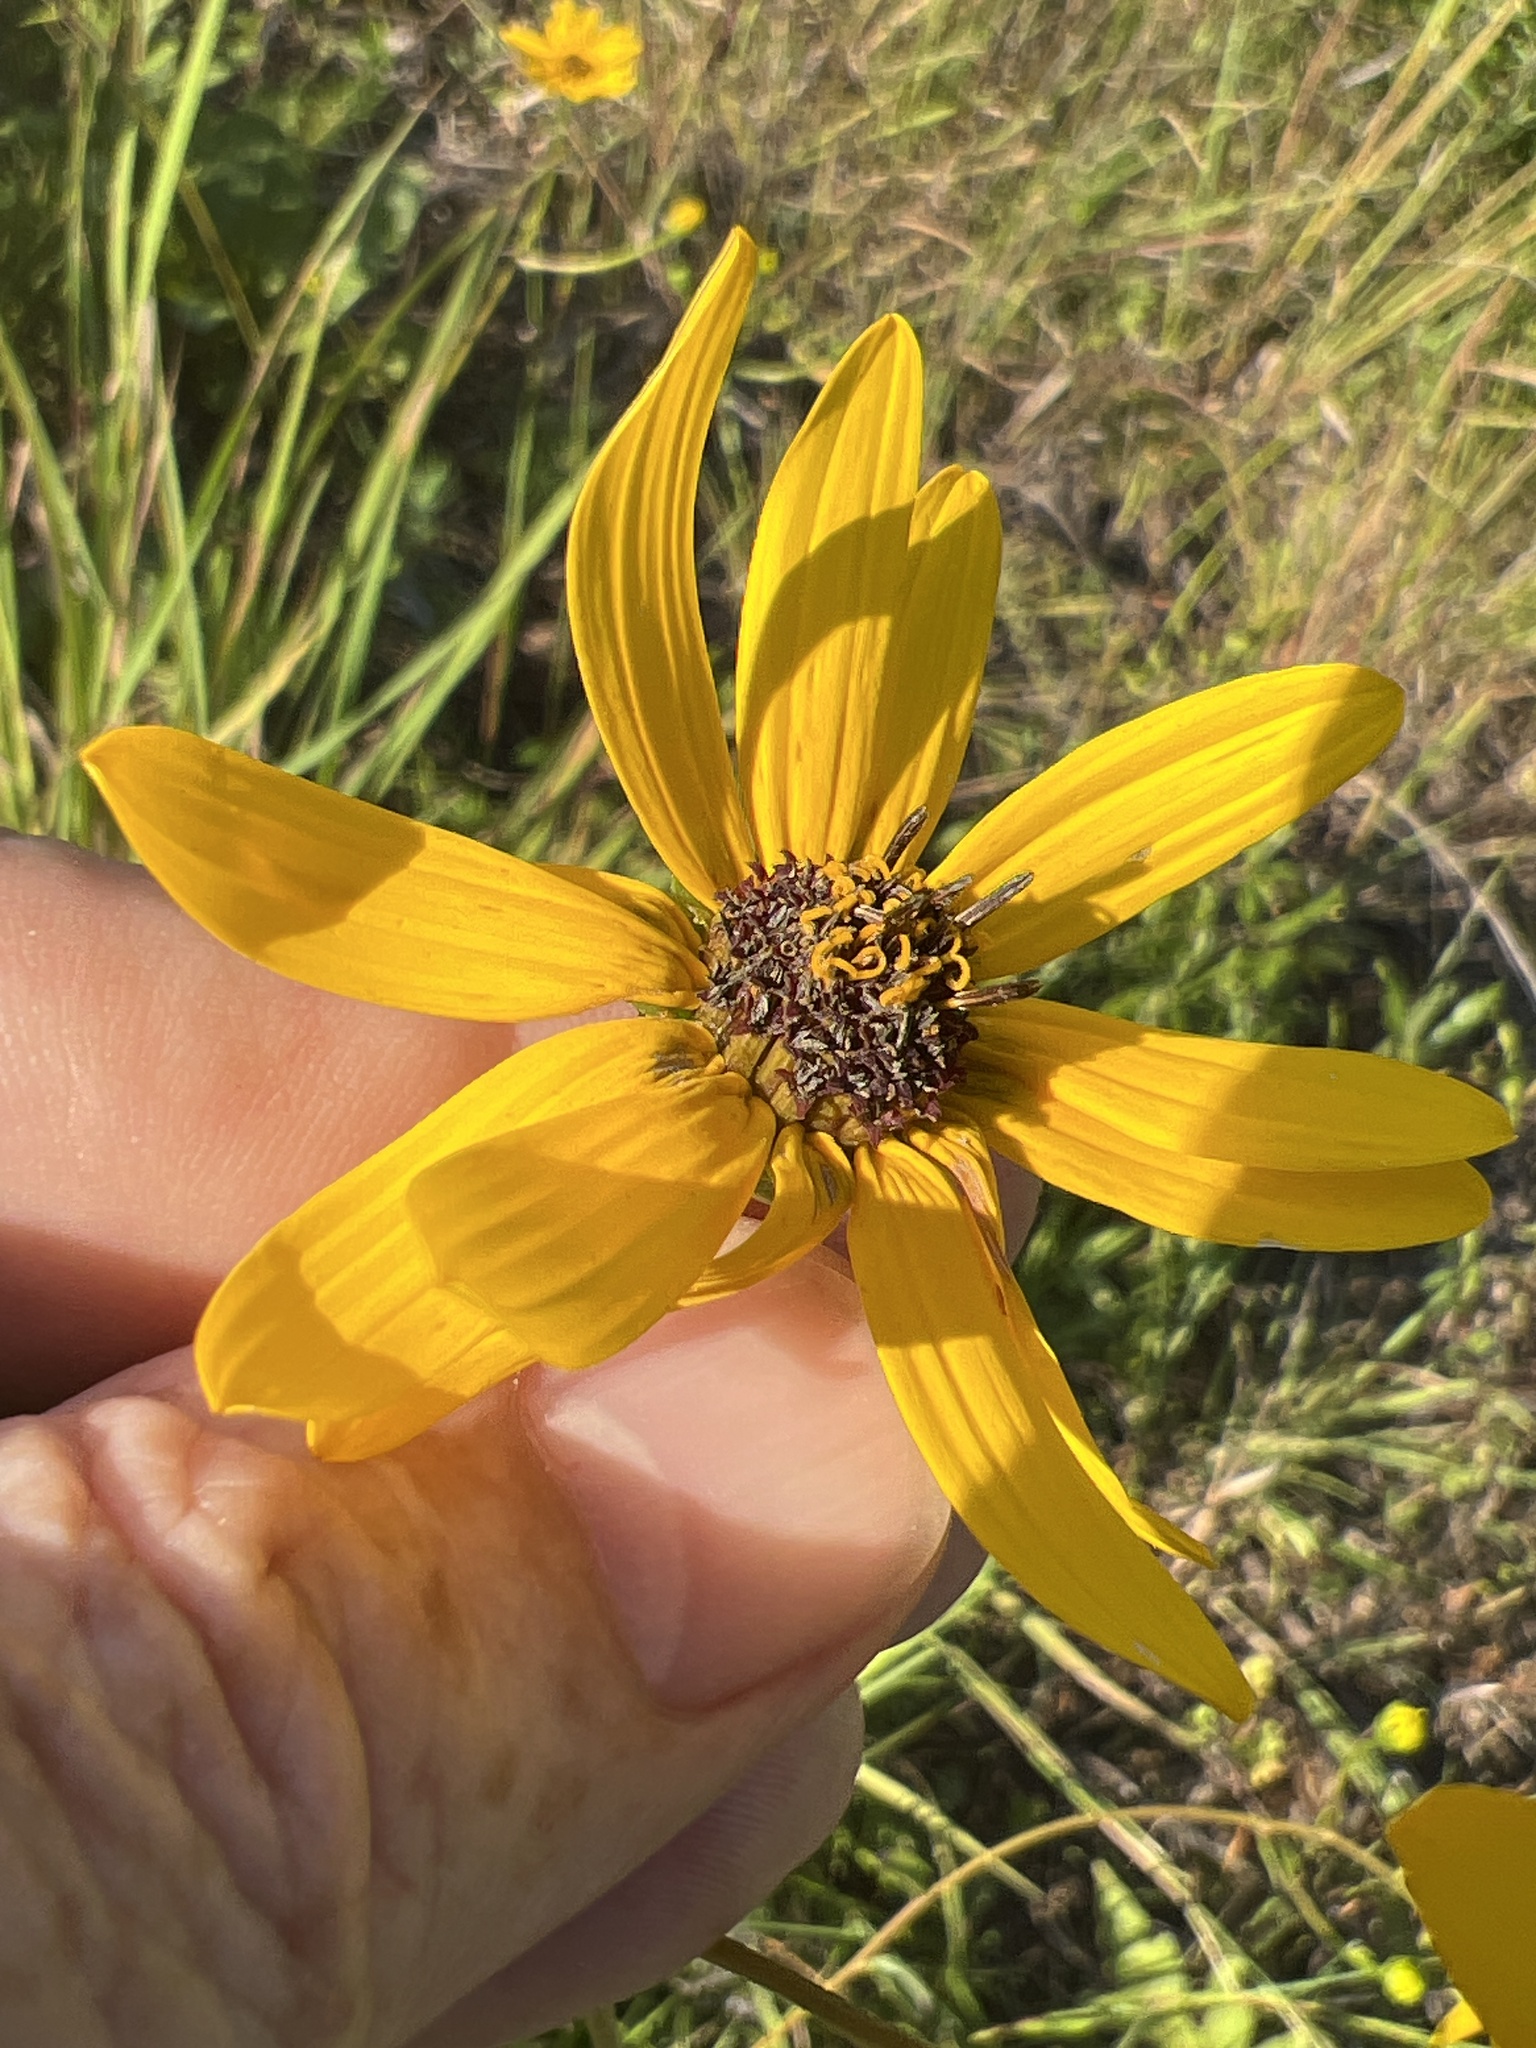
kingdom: Plantae
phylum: Tracheophyta
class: Magnoliopsida
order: Asterales
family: Asteraceae
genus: Helianthus
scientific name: Helianthus atrorubens
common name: Dark-eyed sunflower
